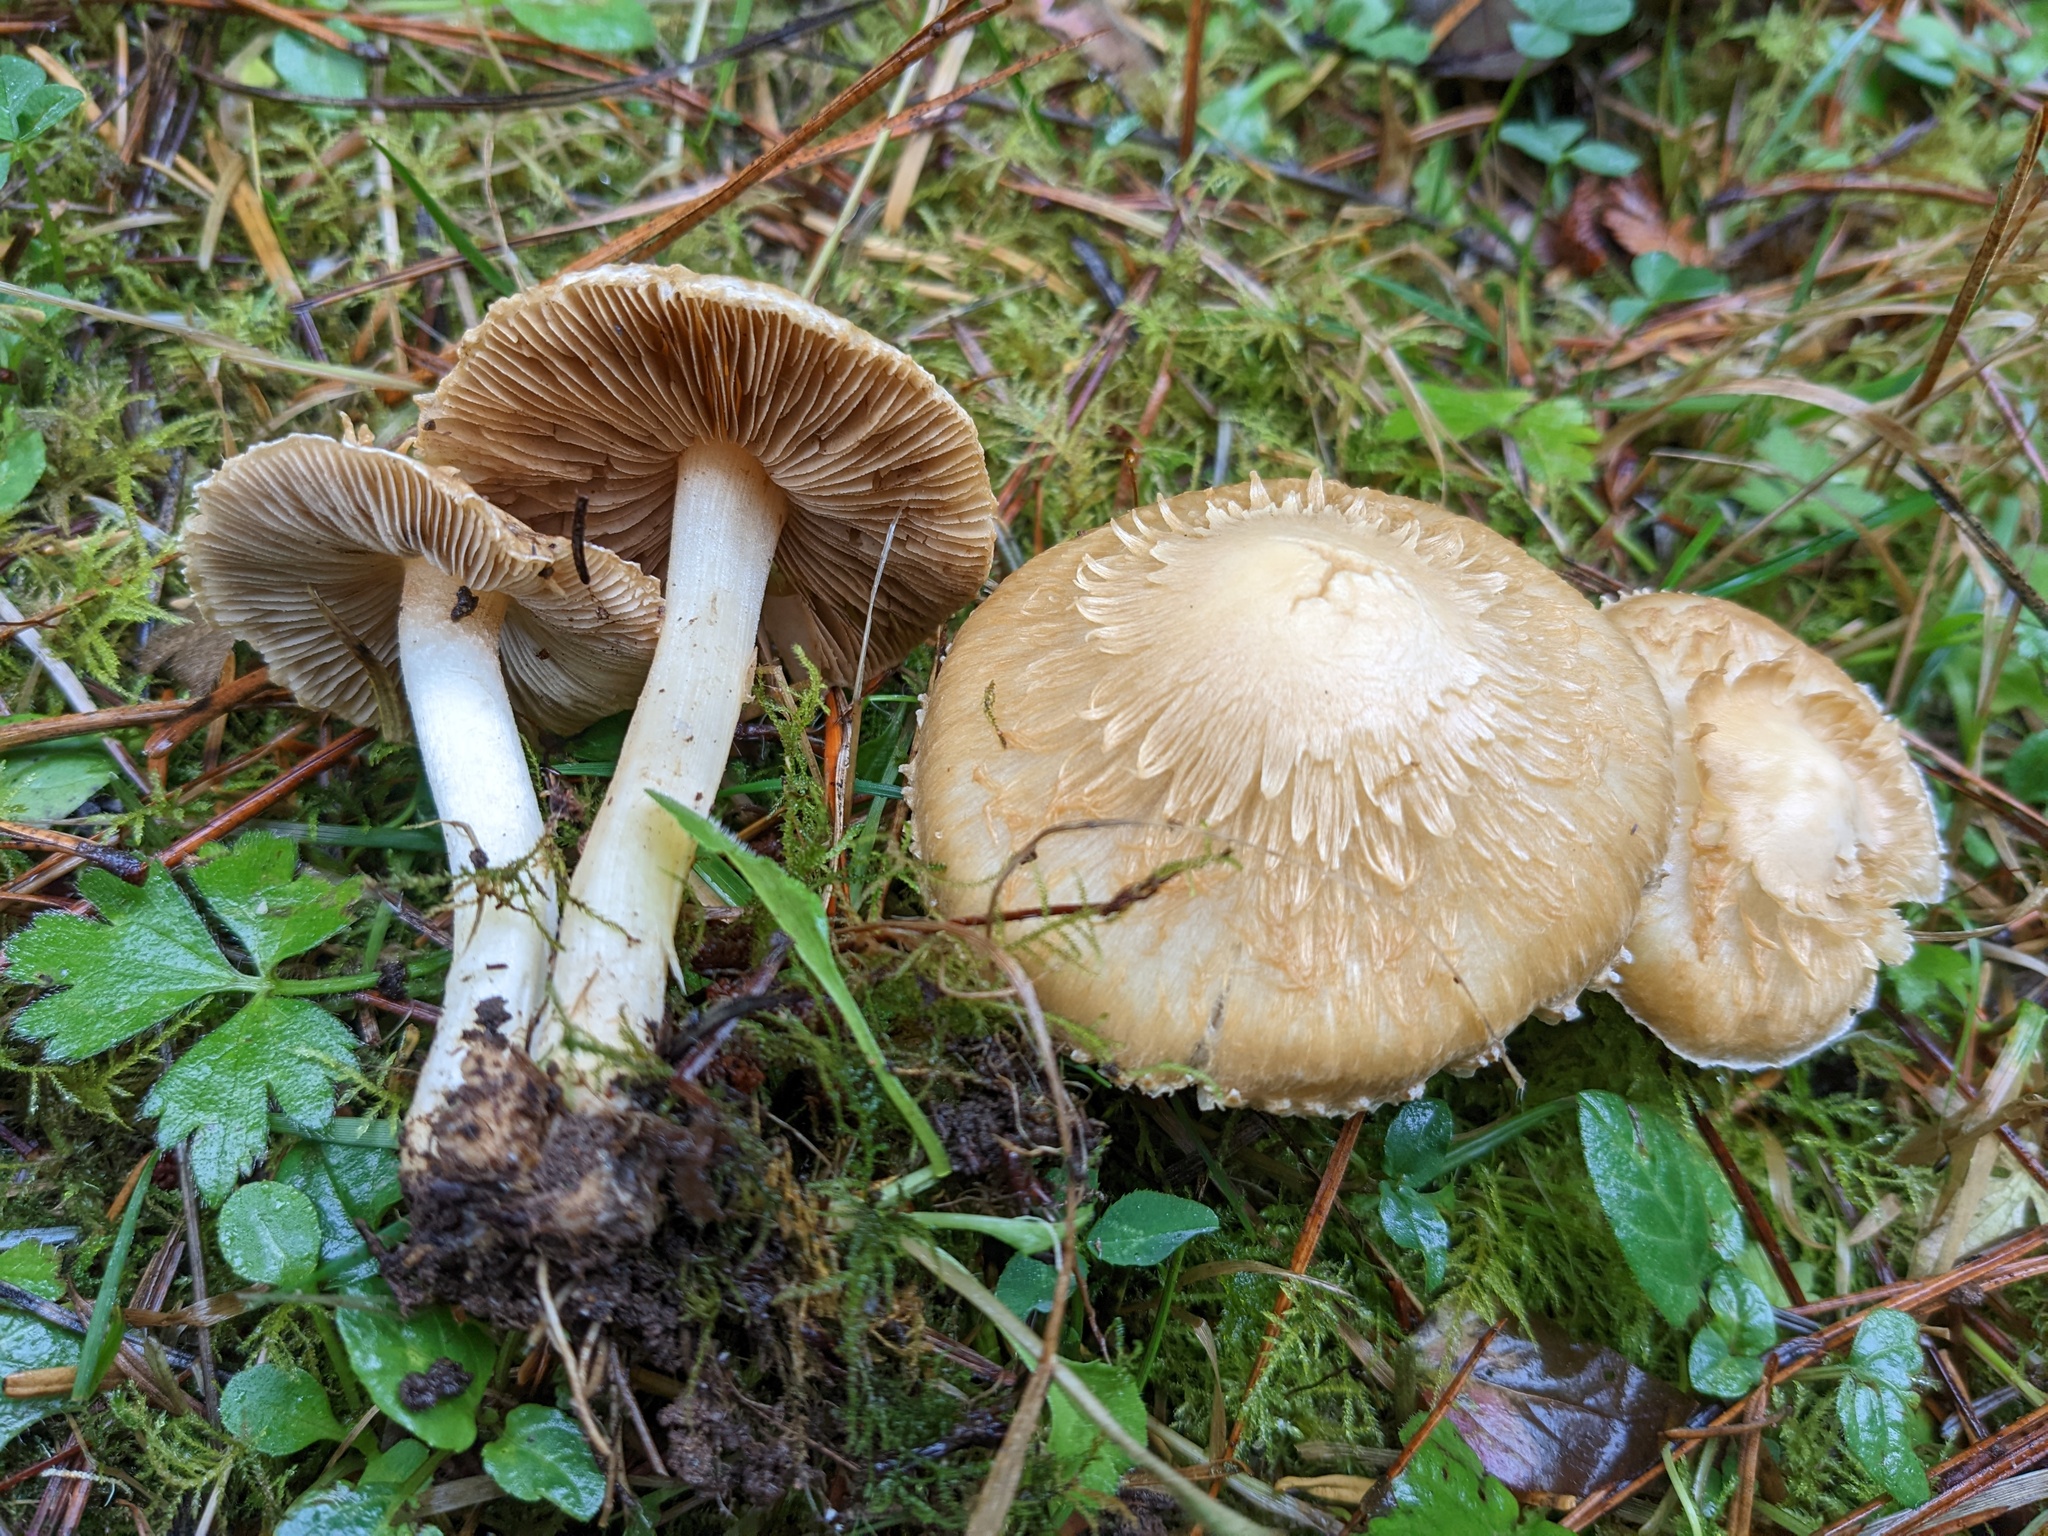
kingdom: Fungi
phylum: Basidiomycota
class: Agaricomycetes
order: Agaricales
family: Inocybaceae
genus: Pseudosperma
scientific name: Pseudosperma sororium
